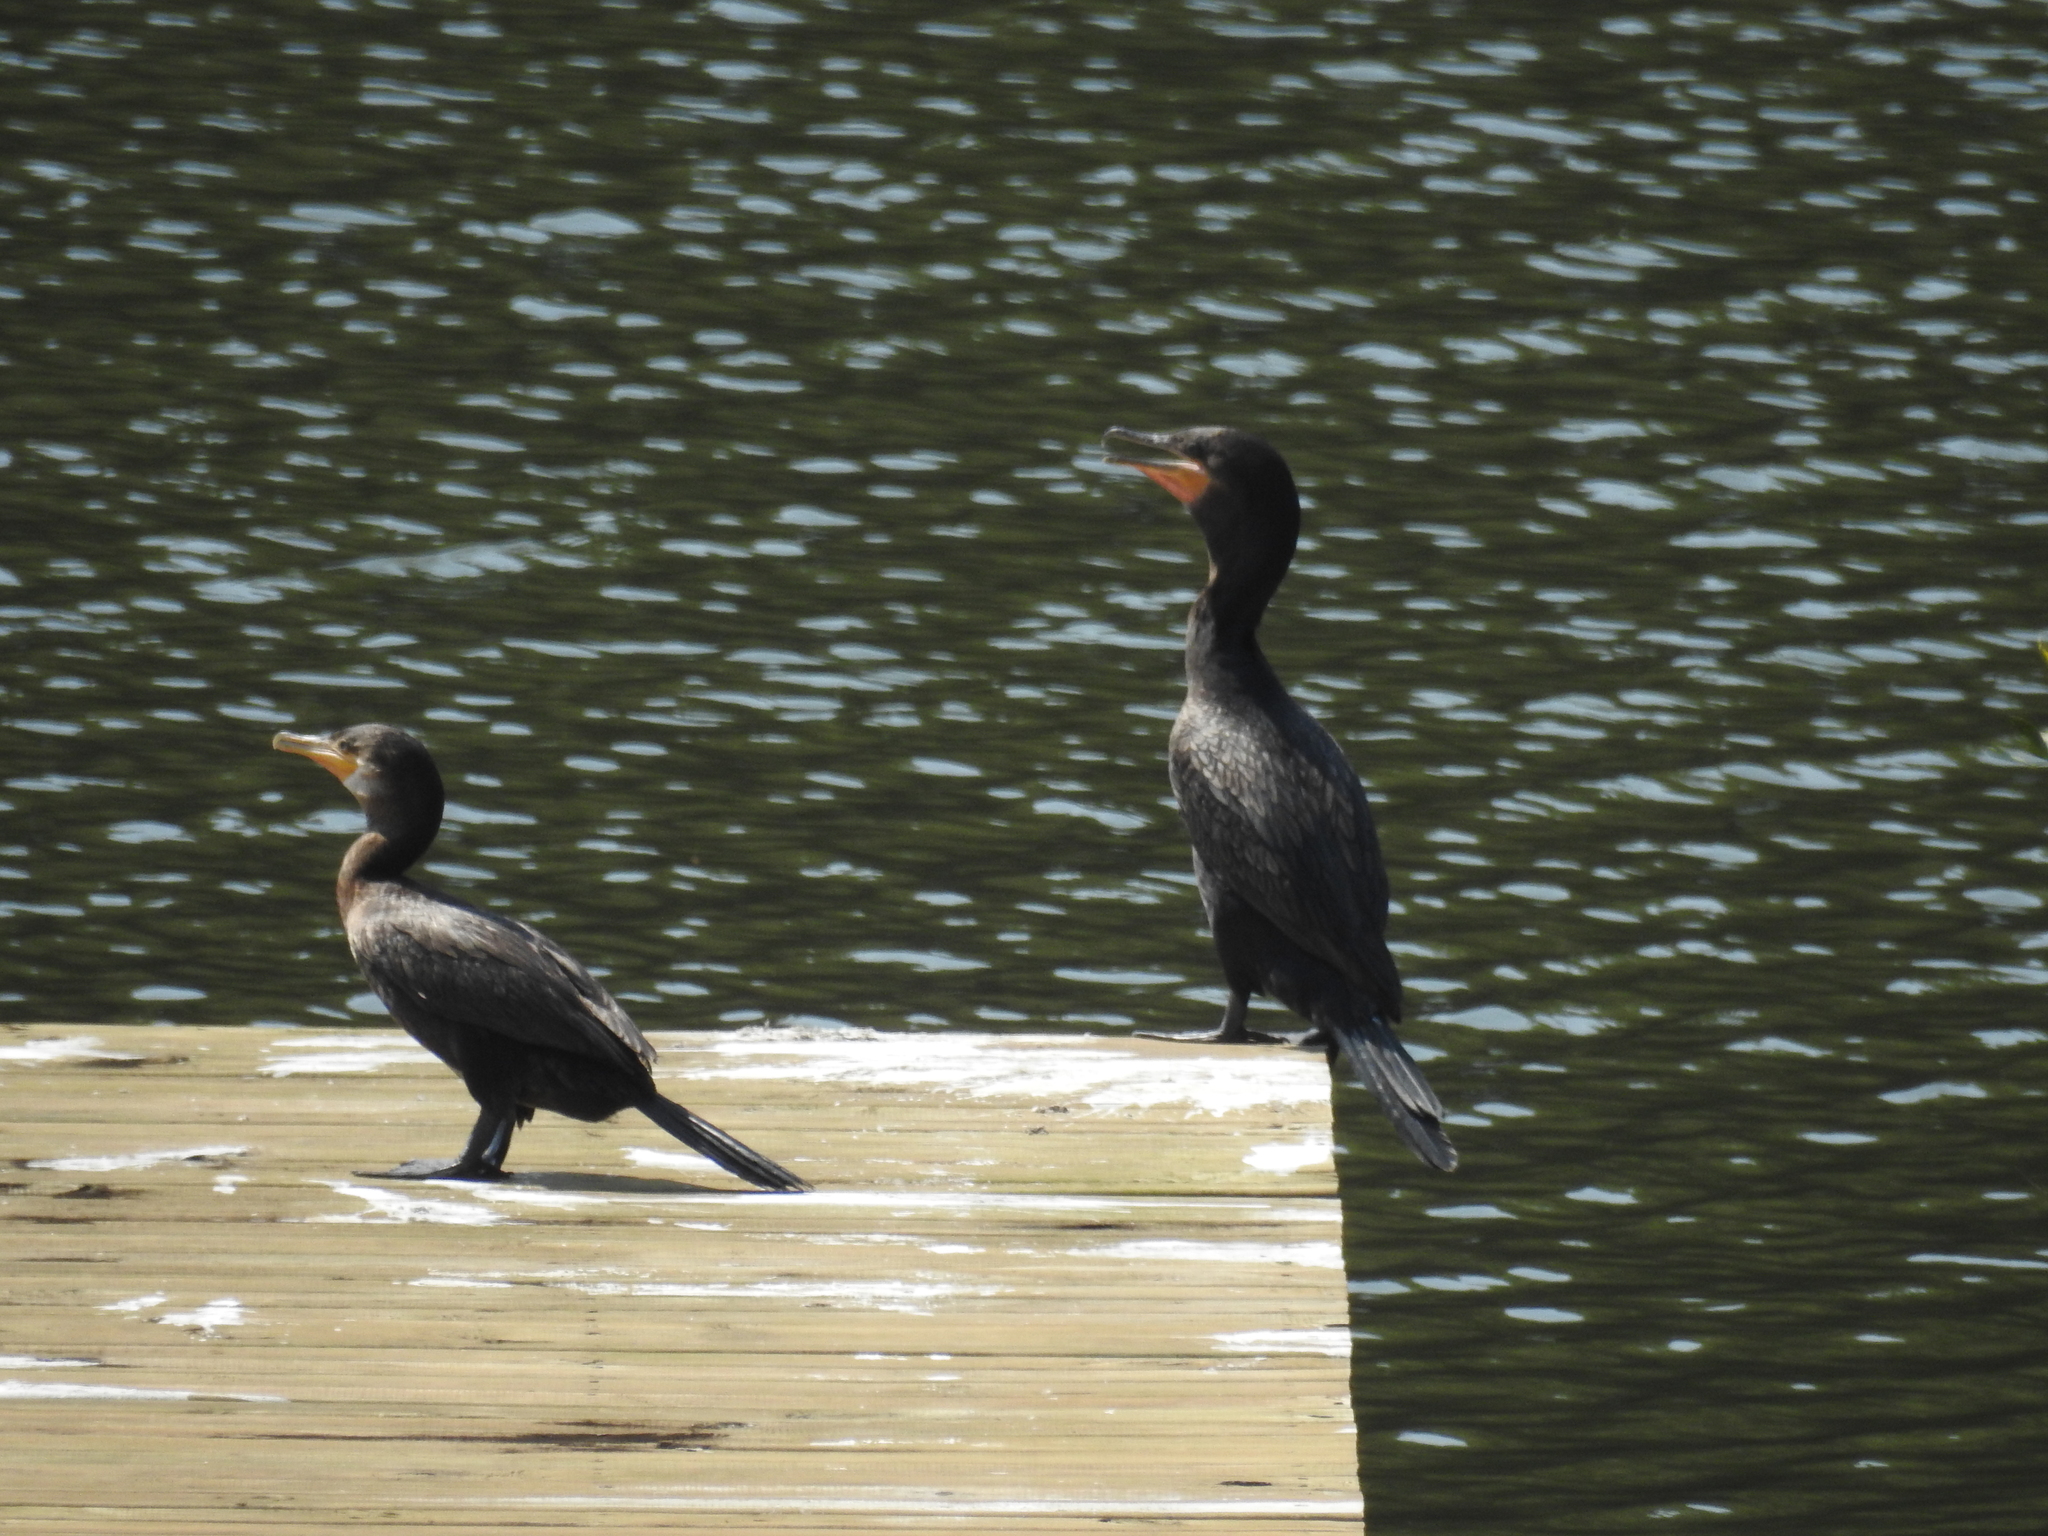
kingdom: Animalia
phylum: Chordata
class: Aves
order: Suliformes
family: Phalacrocoracidae
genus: Phalacrocorax
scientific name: Phalacrocorax brasilianus
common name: Neotropic cormorant
